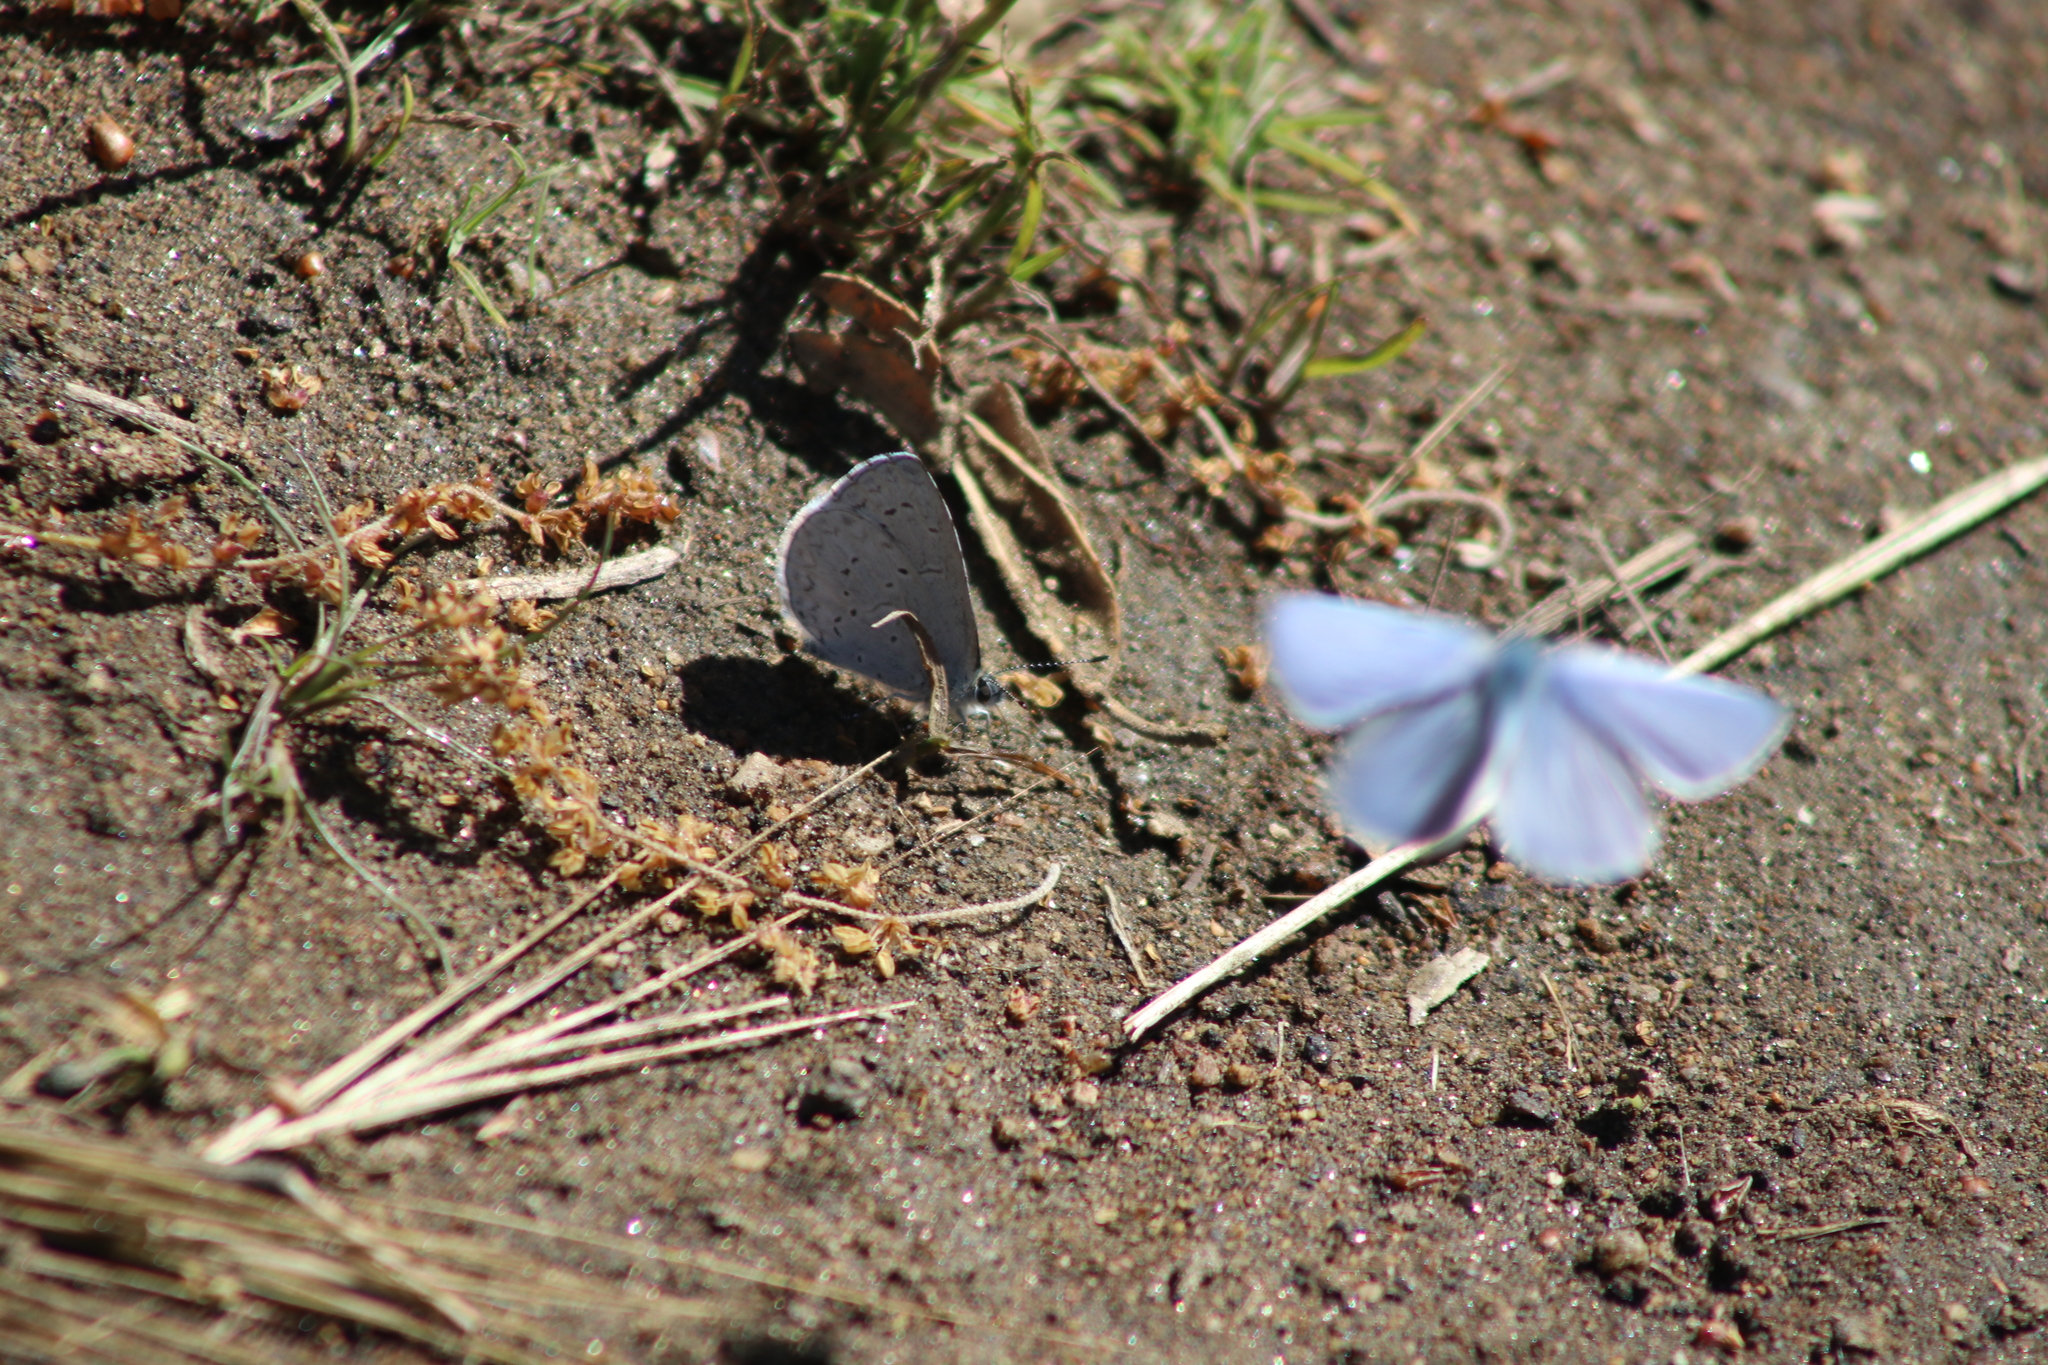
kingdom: Animalia
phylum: Arthropoda
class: Insecta
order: Lepidoptera
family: Lycaenidae
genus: Celastrina
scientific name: Celastrina ladon
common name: Spring azure
